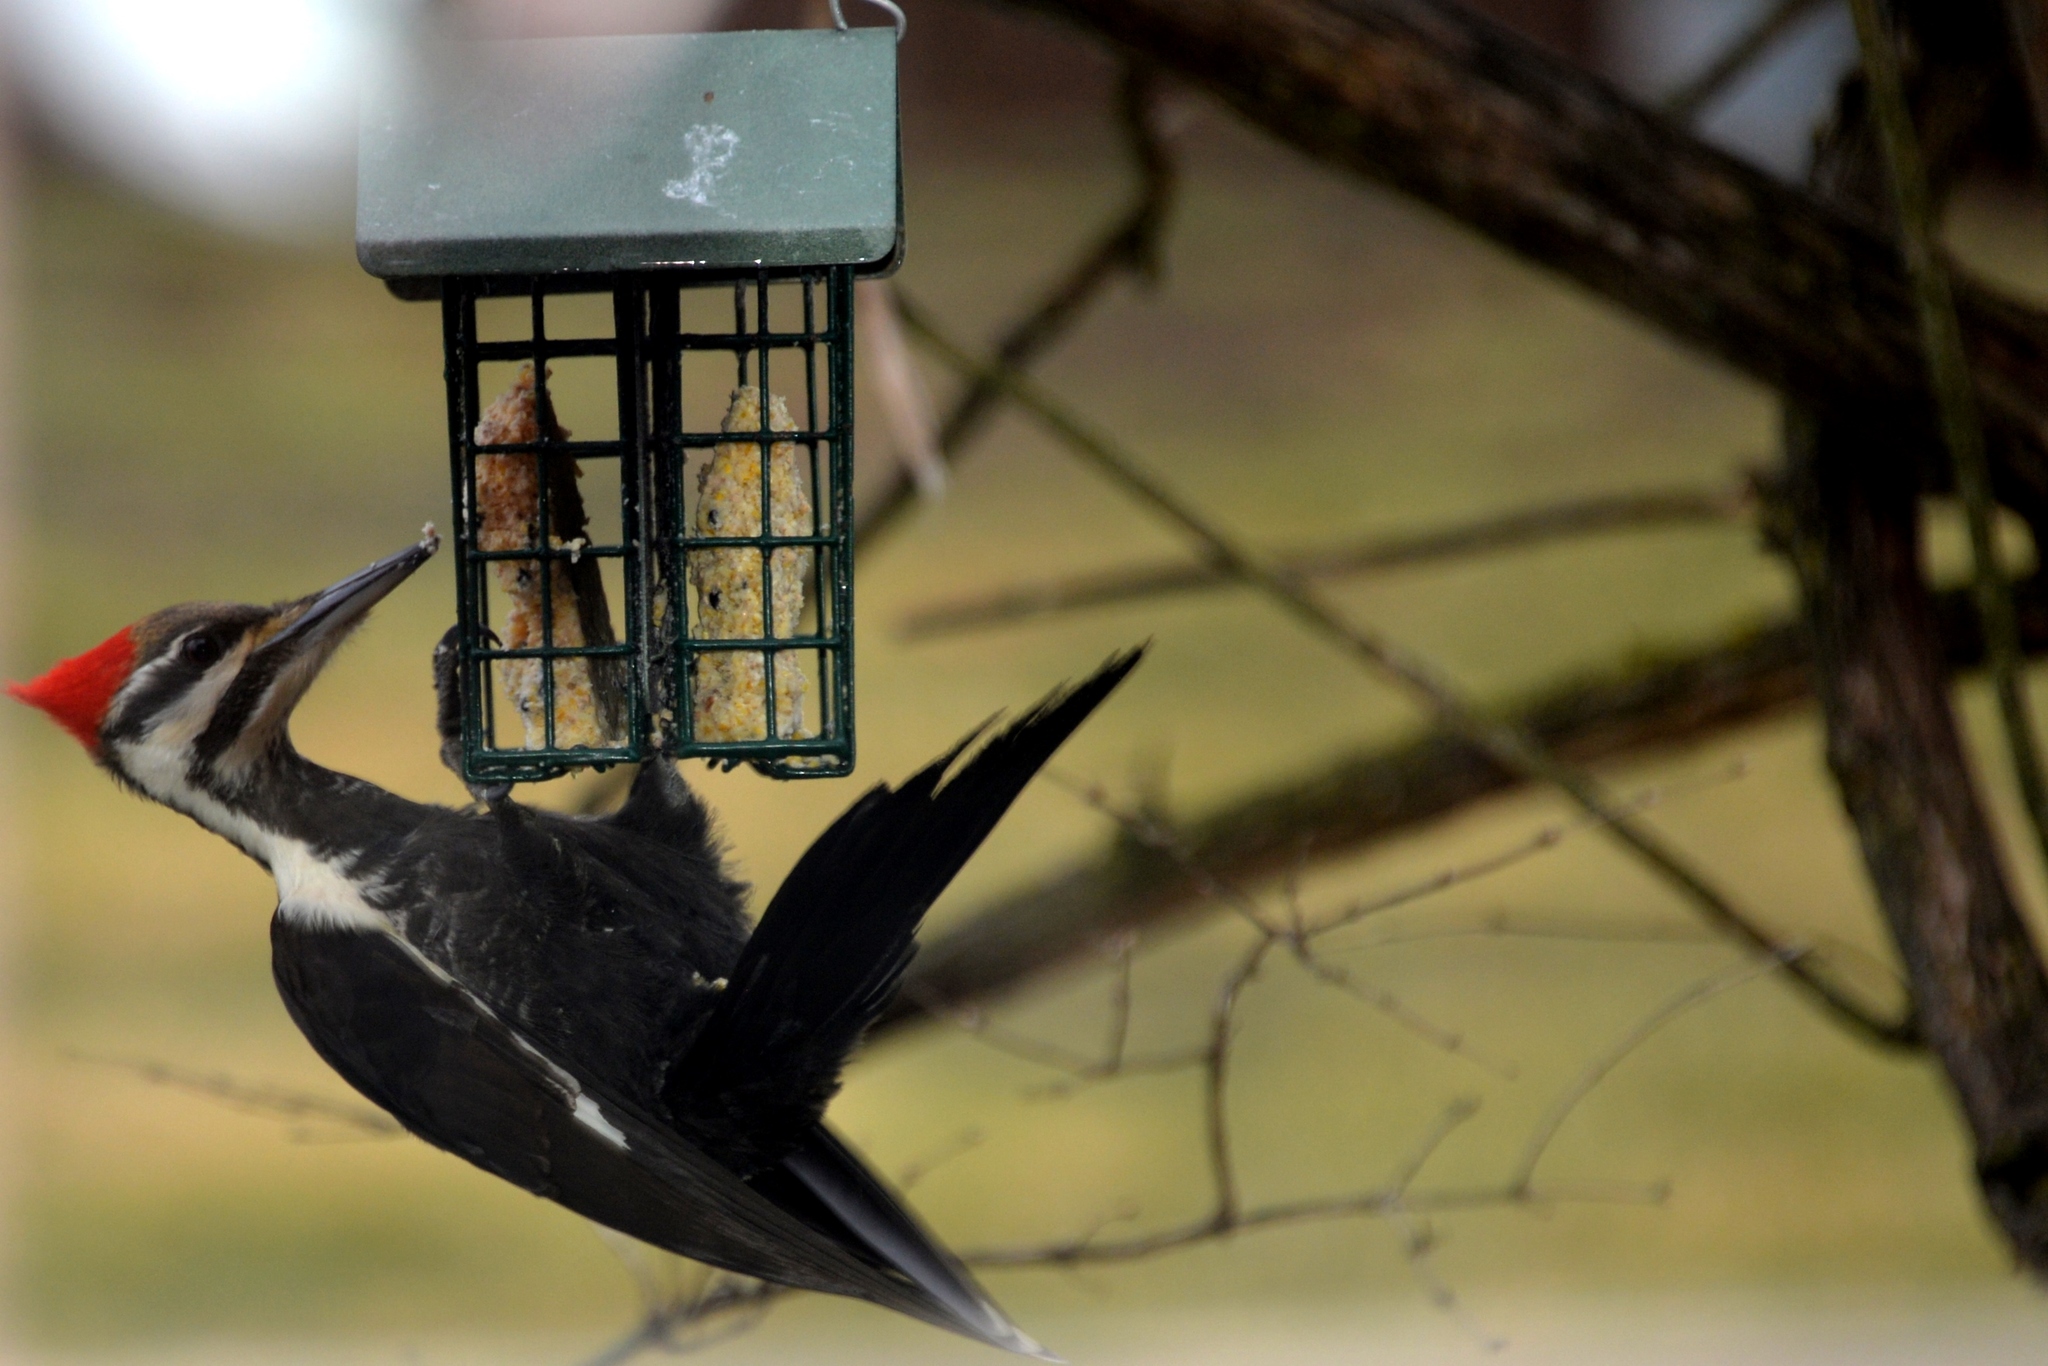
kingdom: Animalia
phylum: Chordata
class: Aves
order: Piciformes
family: Picidae
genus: Dryocopus
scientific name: Dryocopus pileatus
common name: Pileated woodpecker
